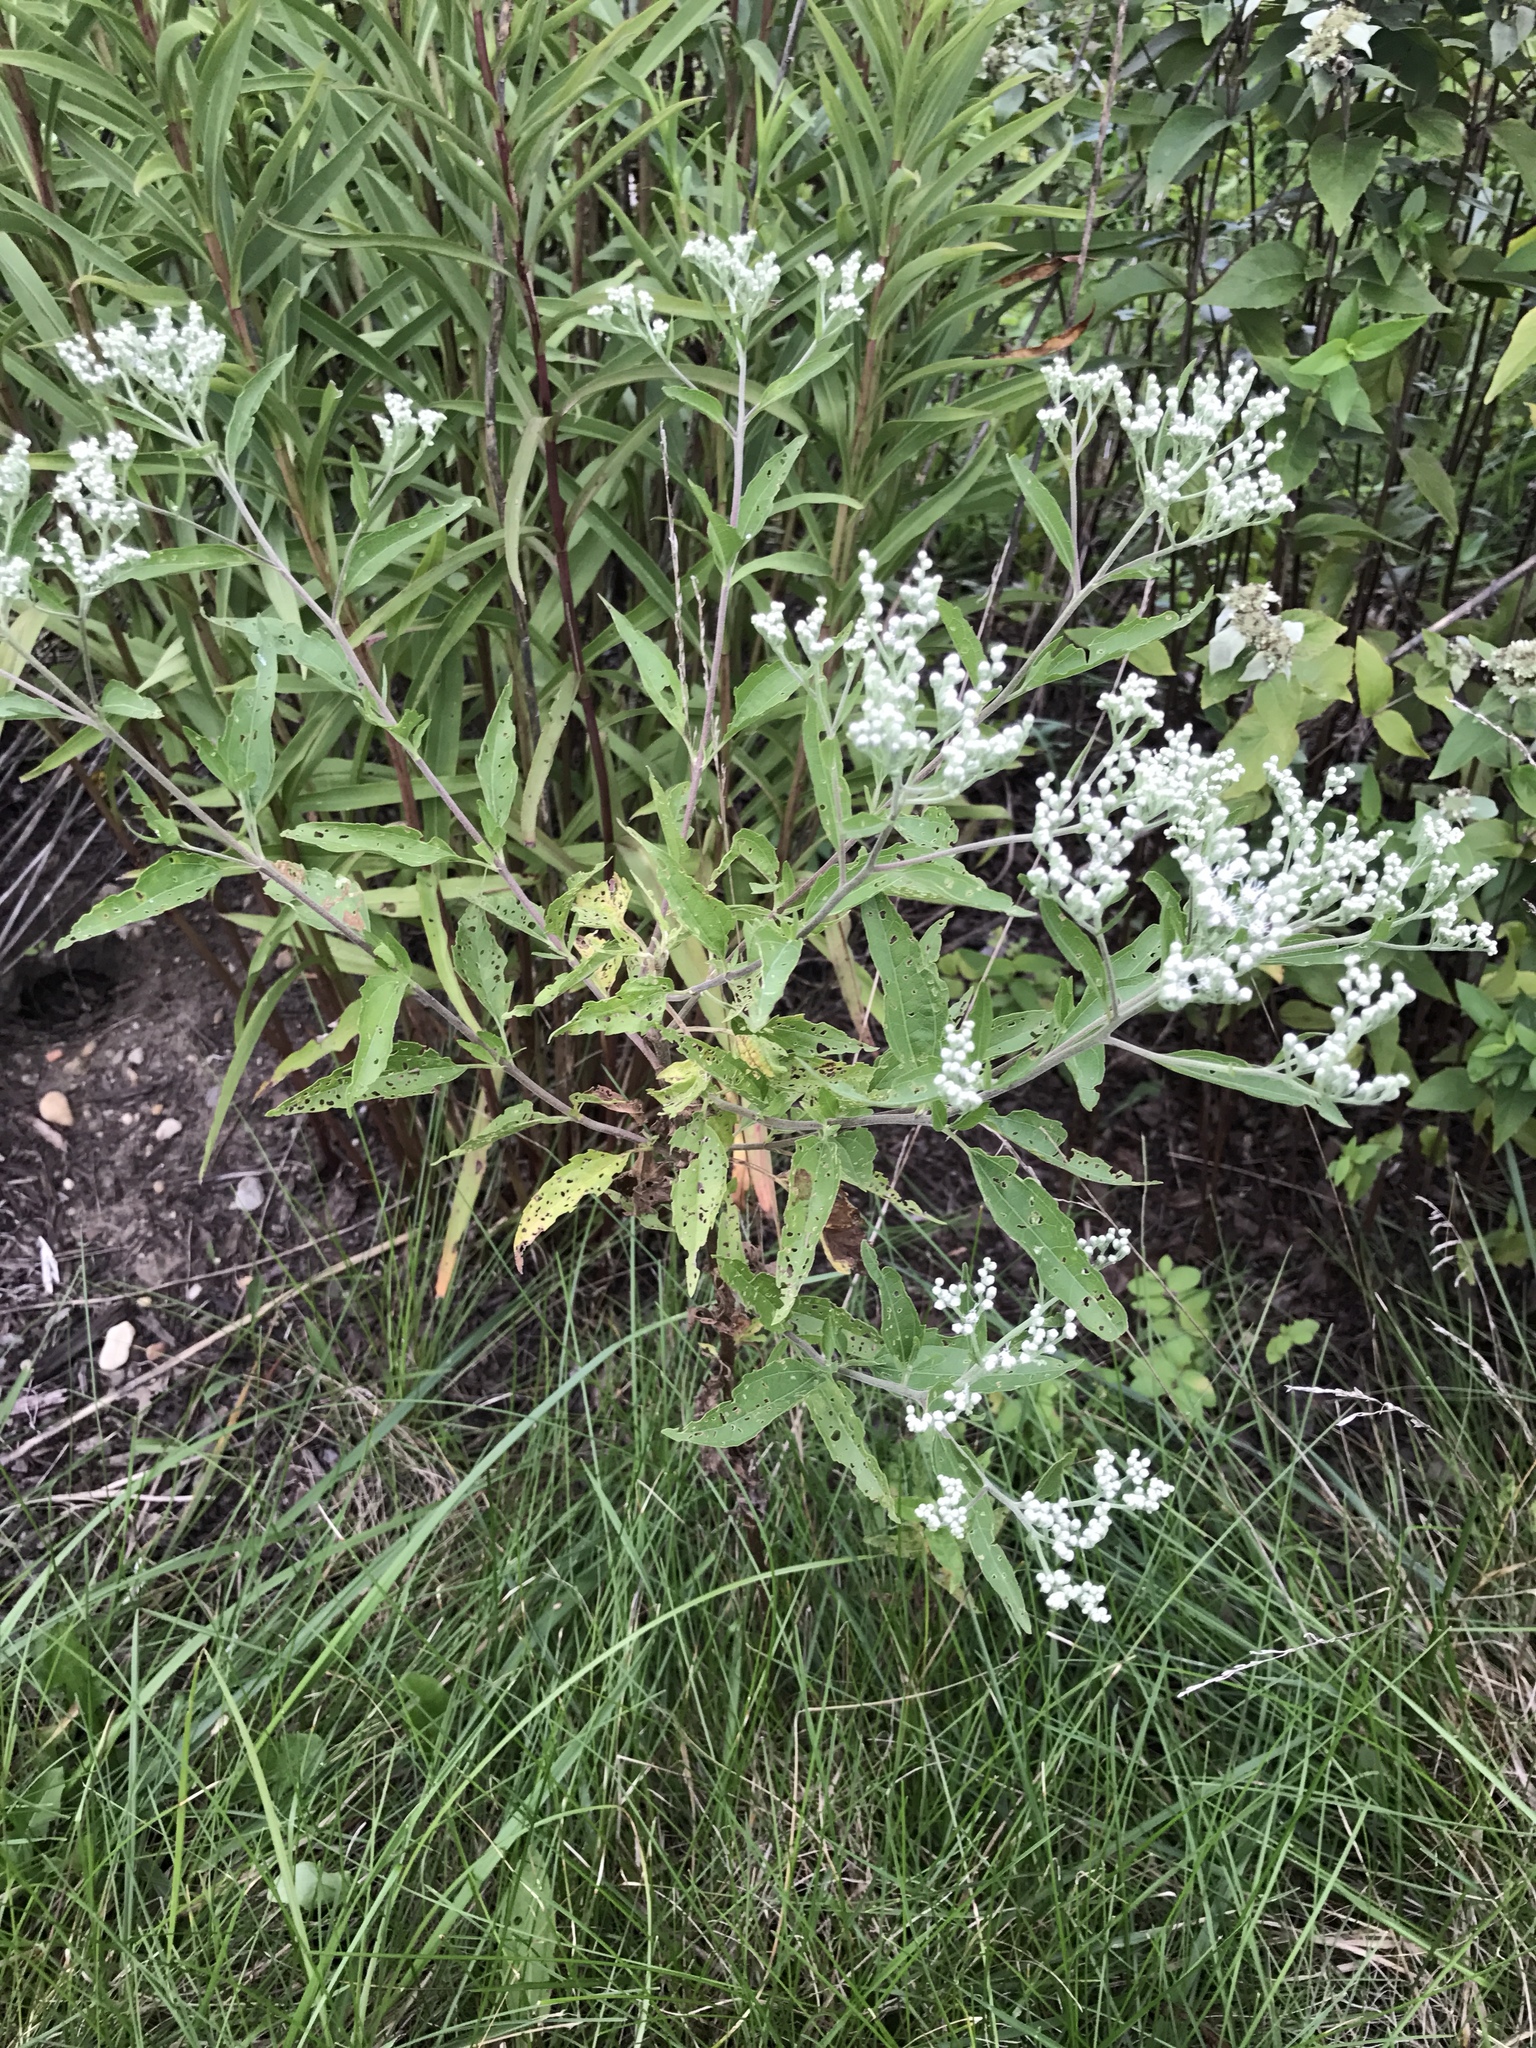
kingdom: Plantae
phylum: Tracheophyta
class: Magnoliopsida
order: Asterales
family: Asteraceae
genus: Eupatorium
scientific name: Eupatorium serotinum
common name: Late boneset
